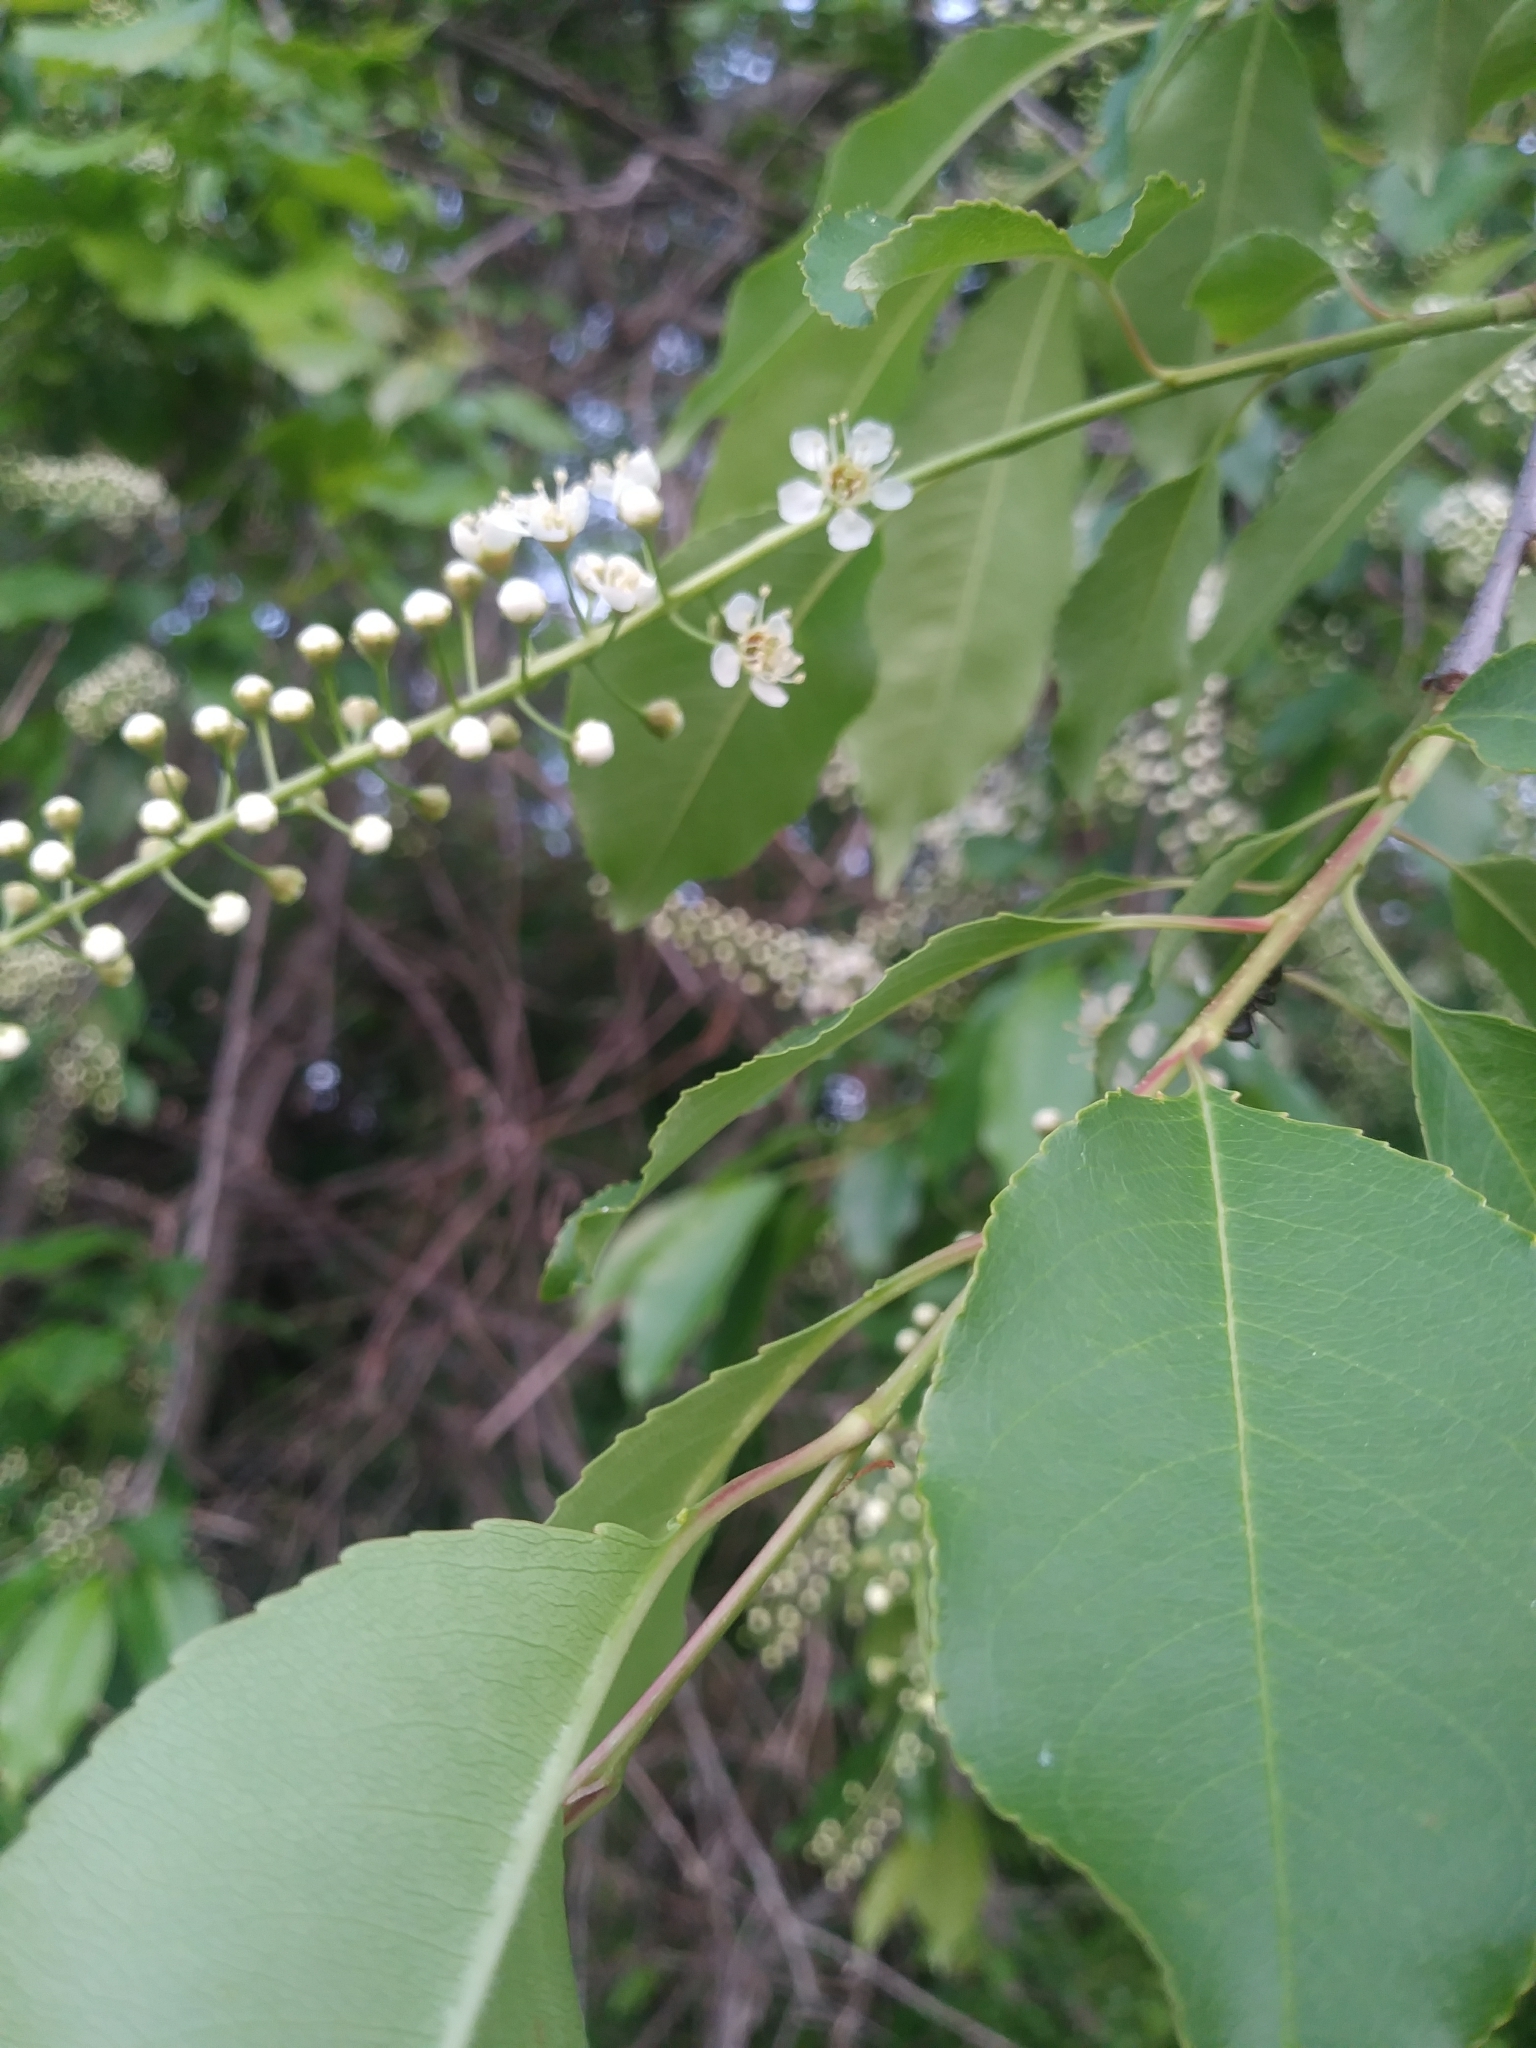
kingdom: Plantae
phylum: Tracheophyta
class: Magnoliopsida
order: Rosales
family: Rosaceae
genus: Prunus
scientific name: Prunus serotina
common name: Black cherry
